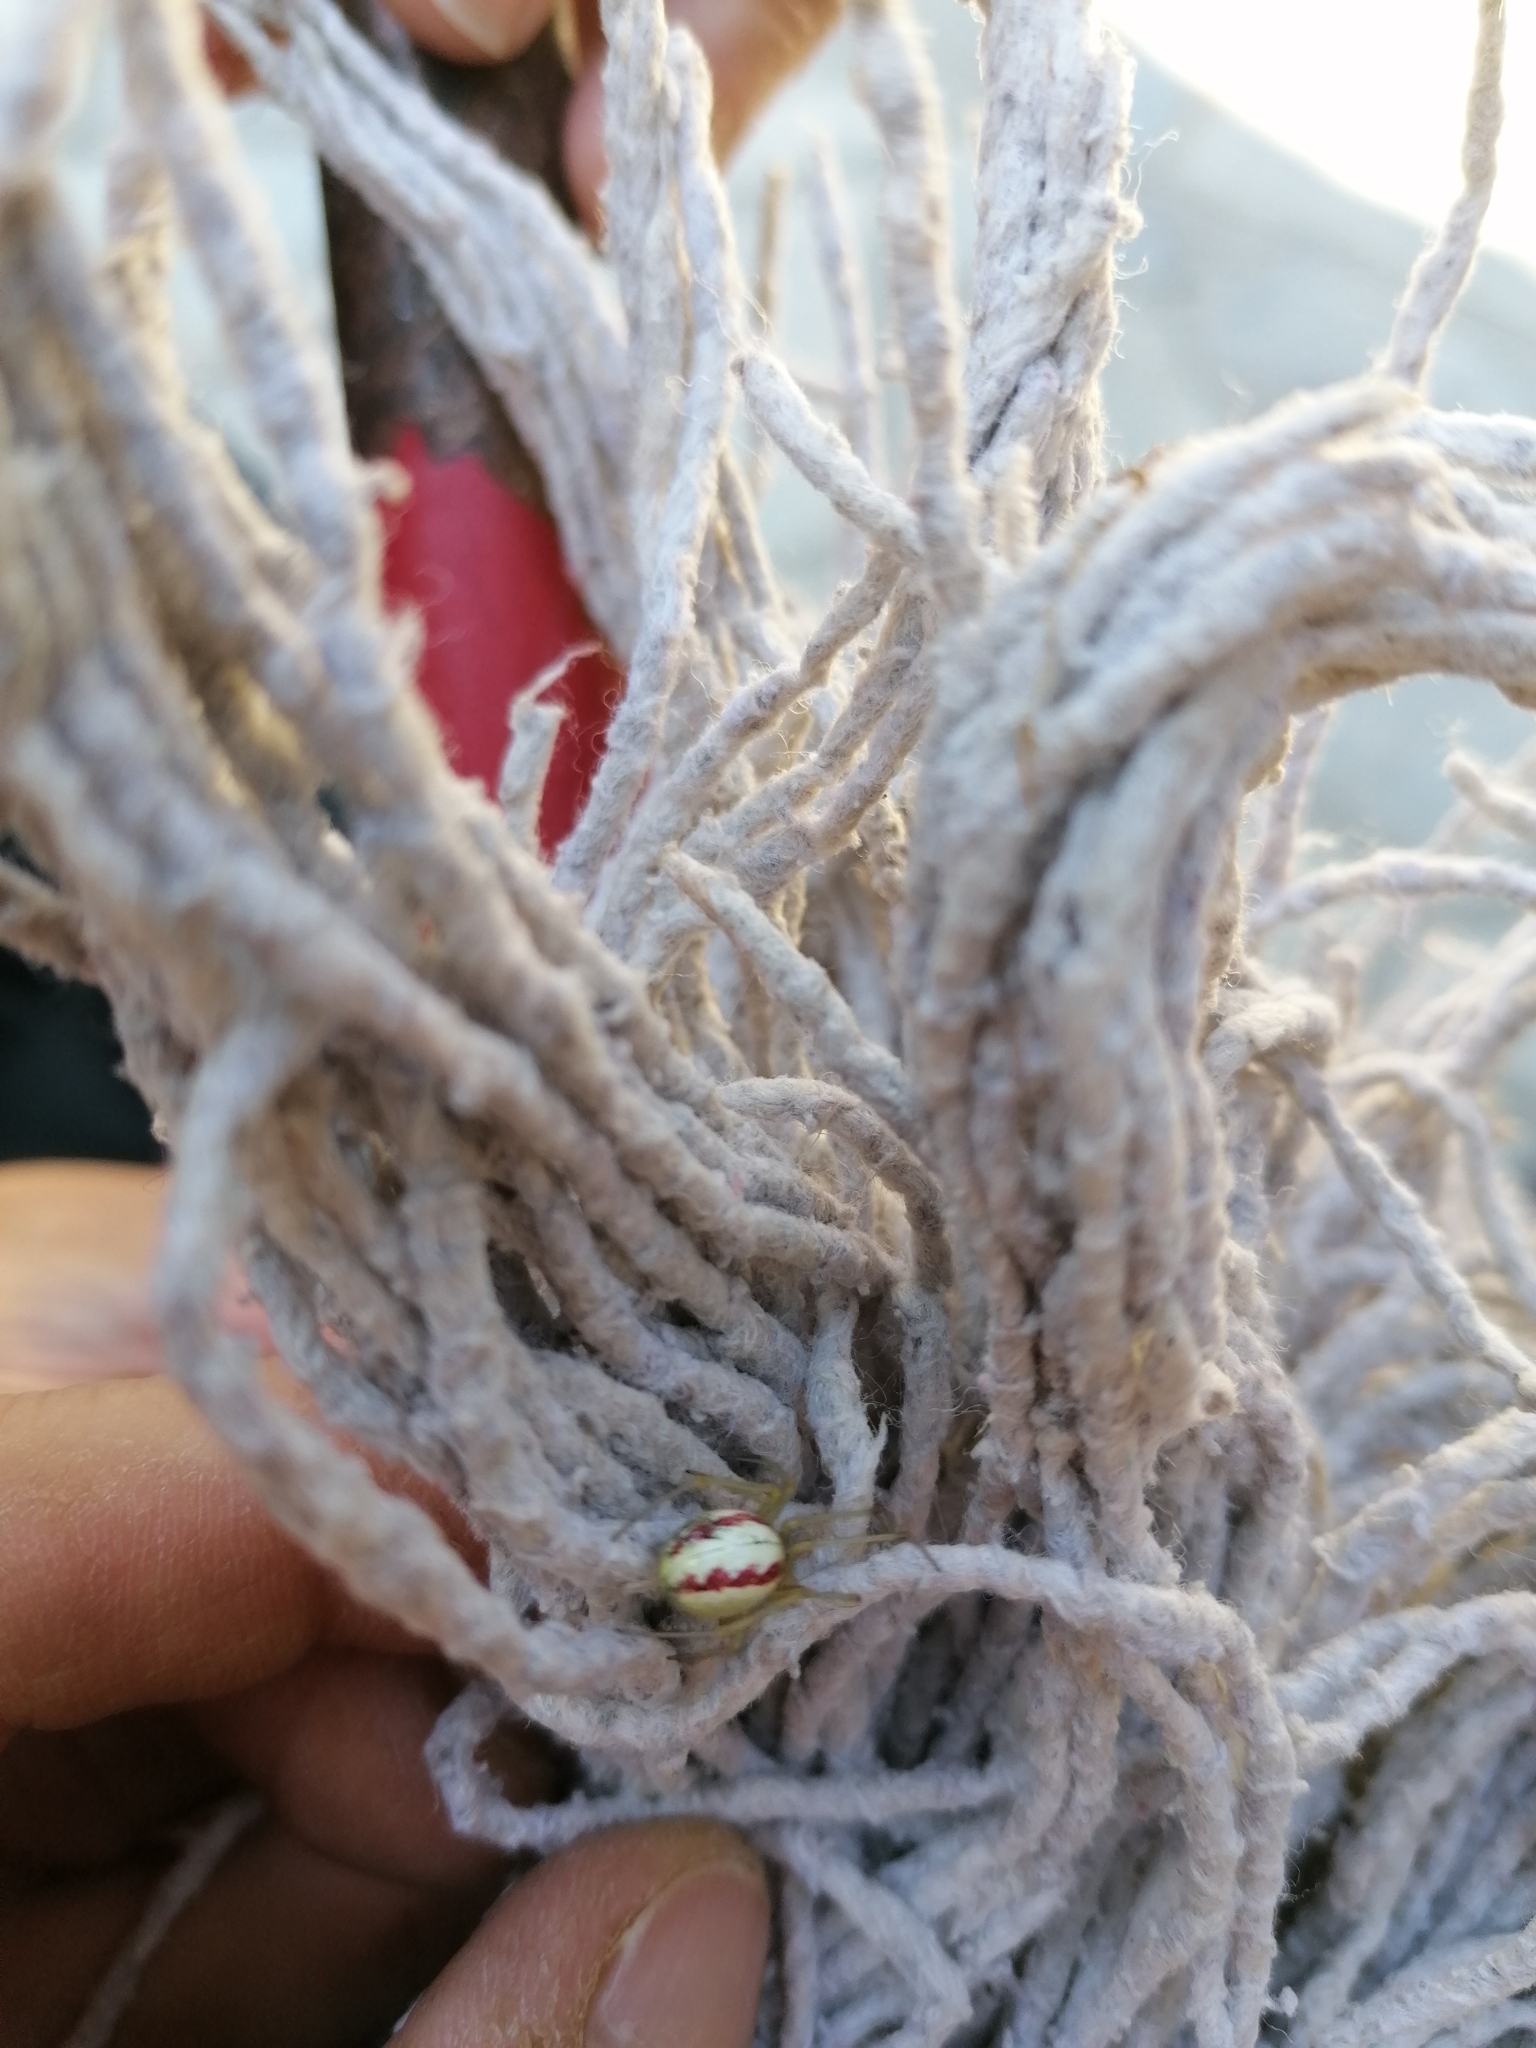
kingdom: Animalia
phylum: Arthropoda
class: Arachnida
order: Araneae
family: Theridiidae
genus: Enoplognatha
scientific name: Enoplognatha
